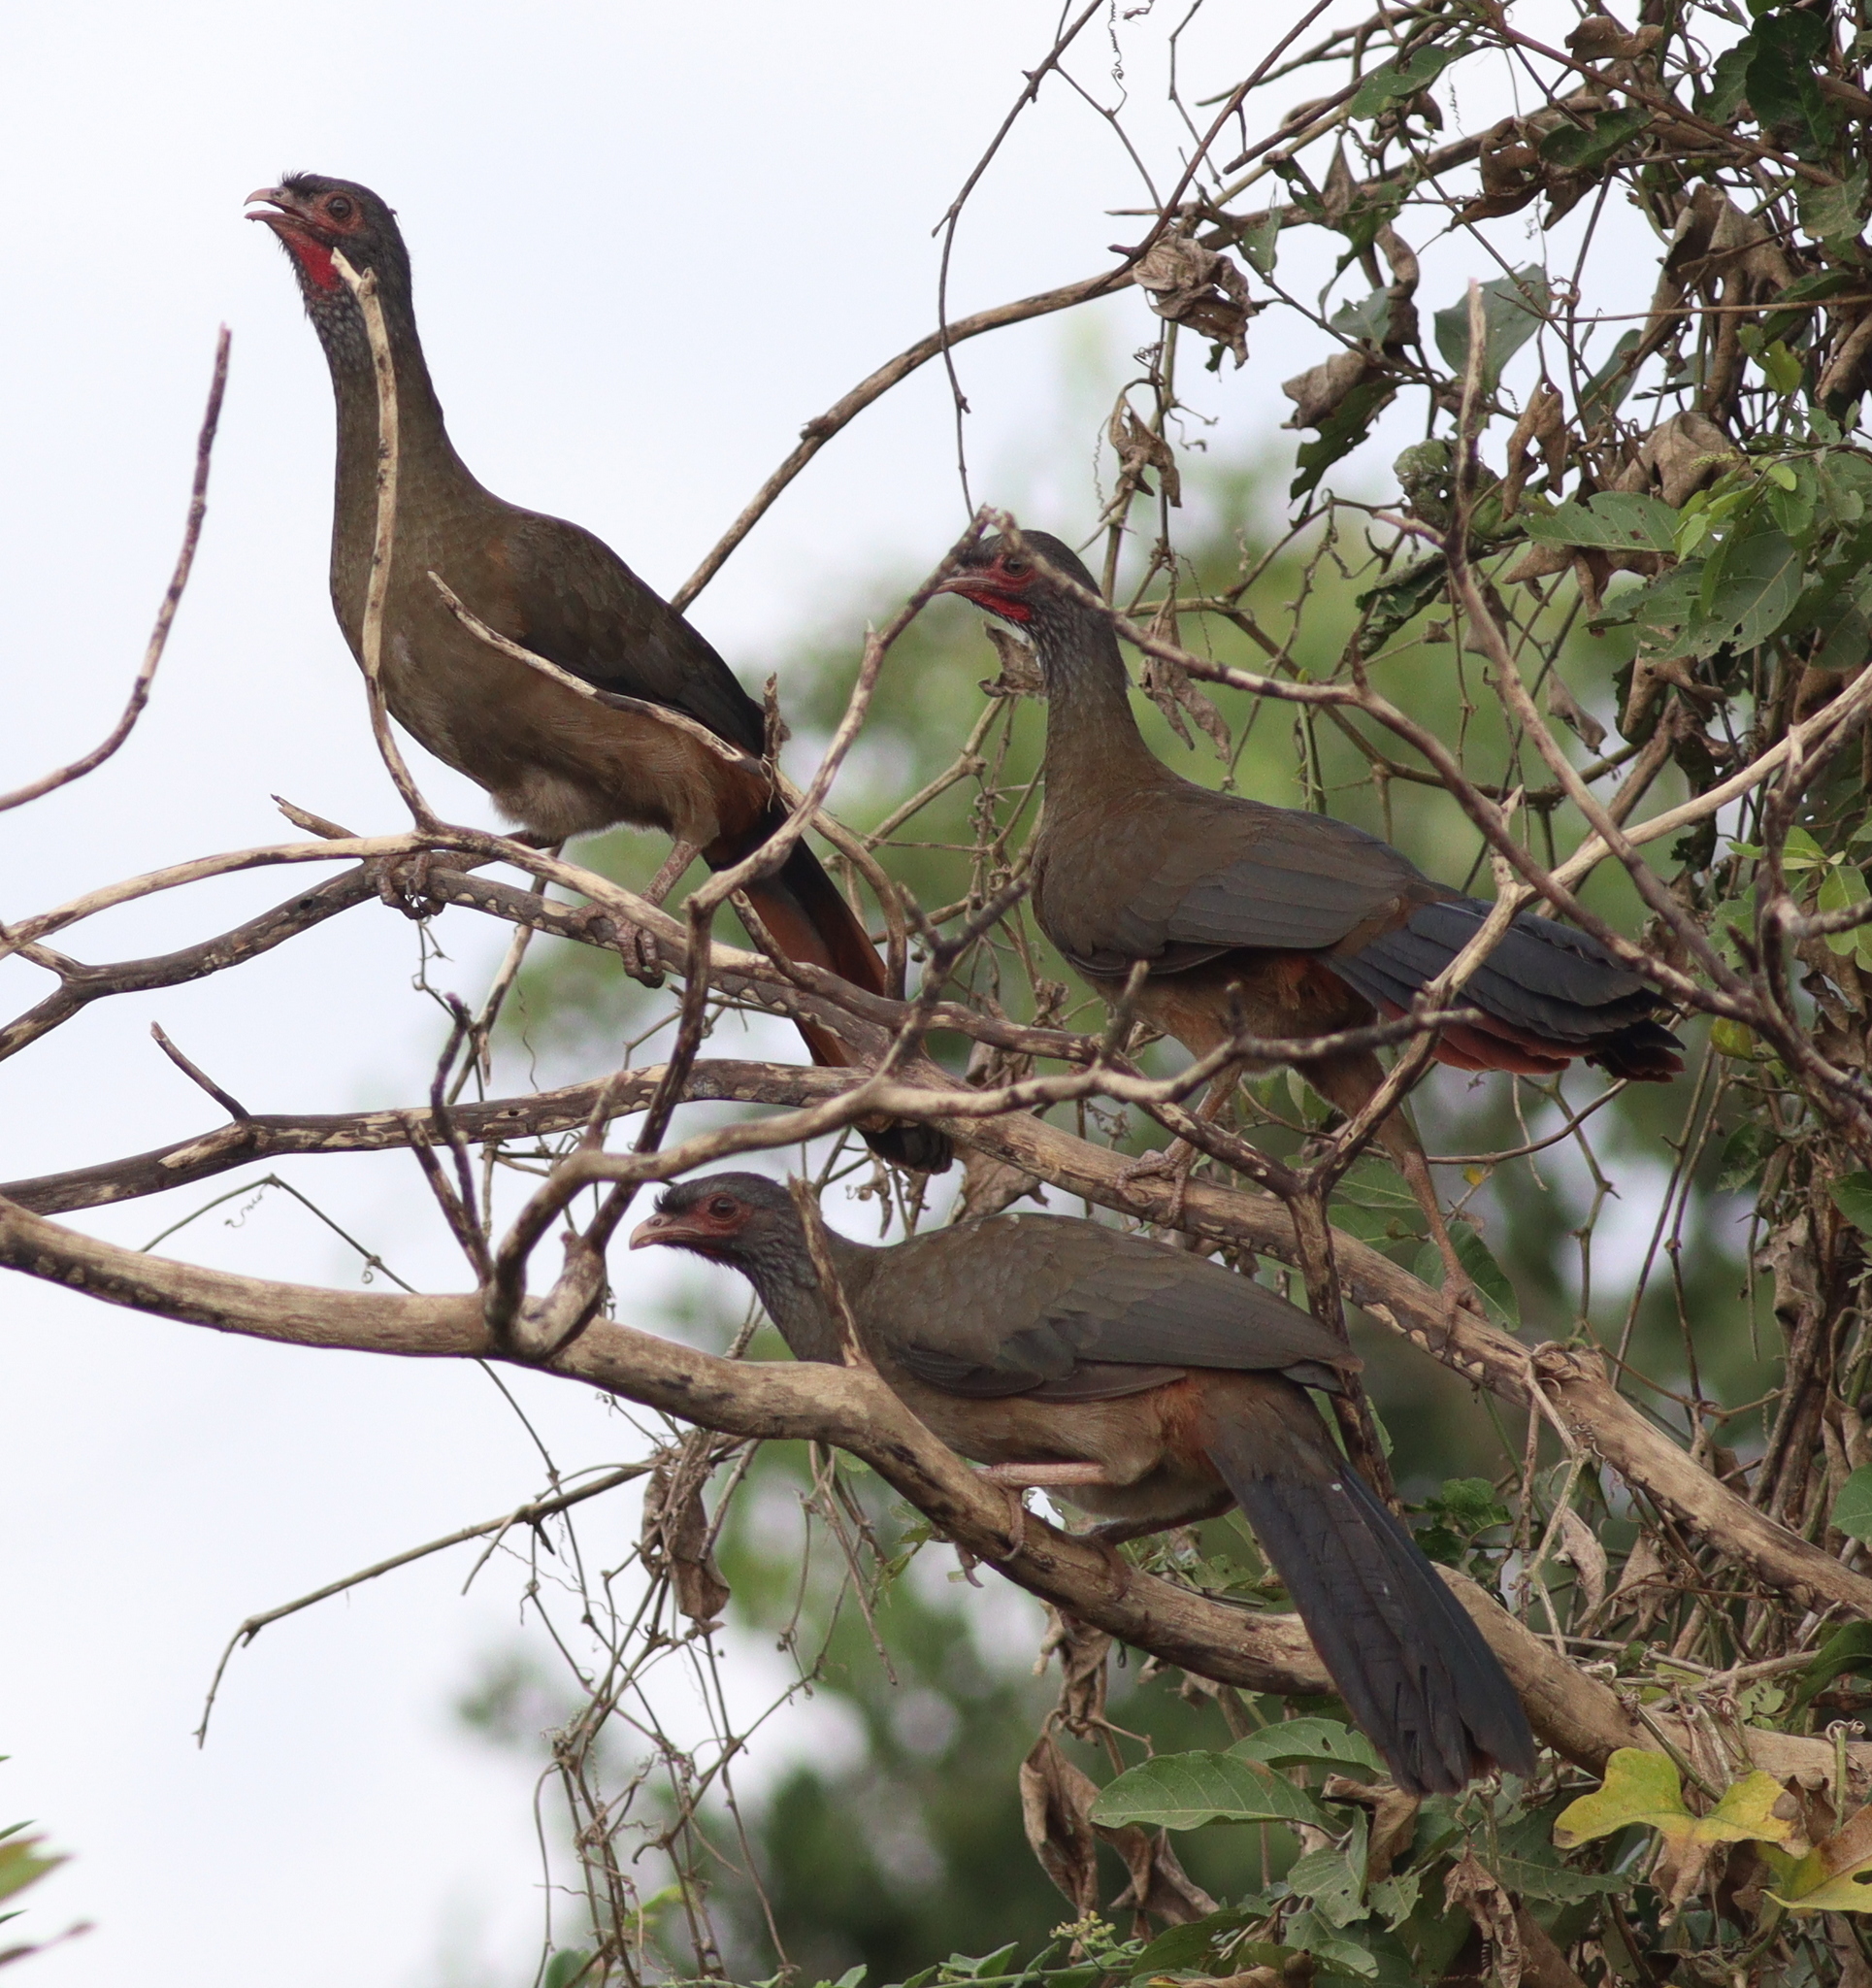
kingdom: Animalia
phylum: Chordata
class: Aves
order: Galliformes
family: Cracidae
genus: Ortalis
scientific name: Ortalis canicollis
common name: Chaco chachalaca
